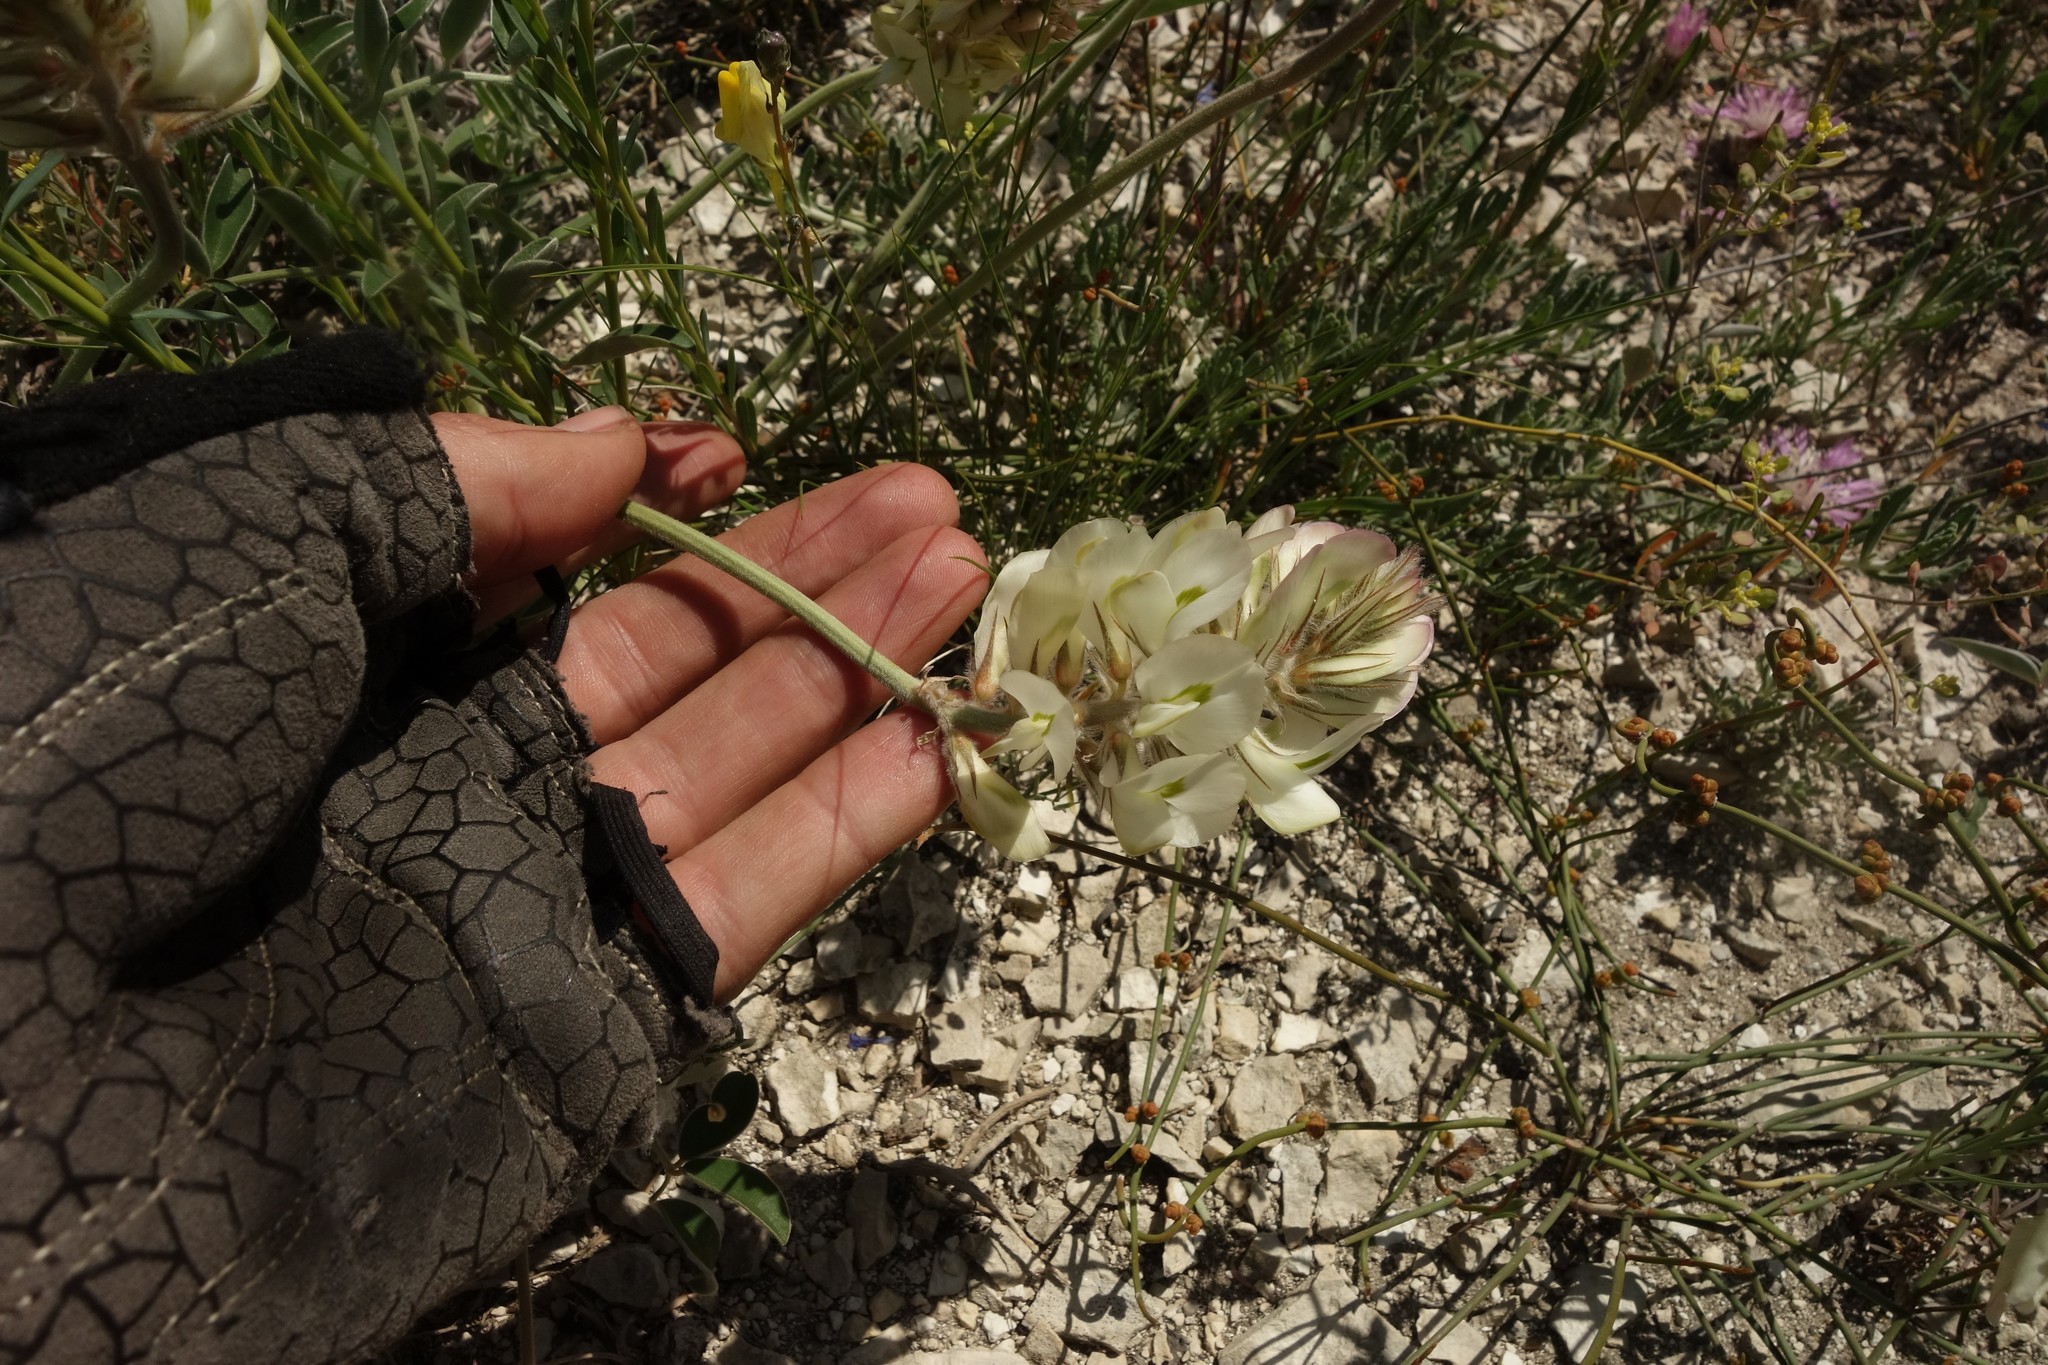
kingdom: Plantae
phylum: Tracheophyta
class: Magnoliopsida
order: Fabales
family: Fabaceae
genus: Hedysarum
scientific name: Hedysarum grandiflorum
